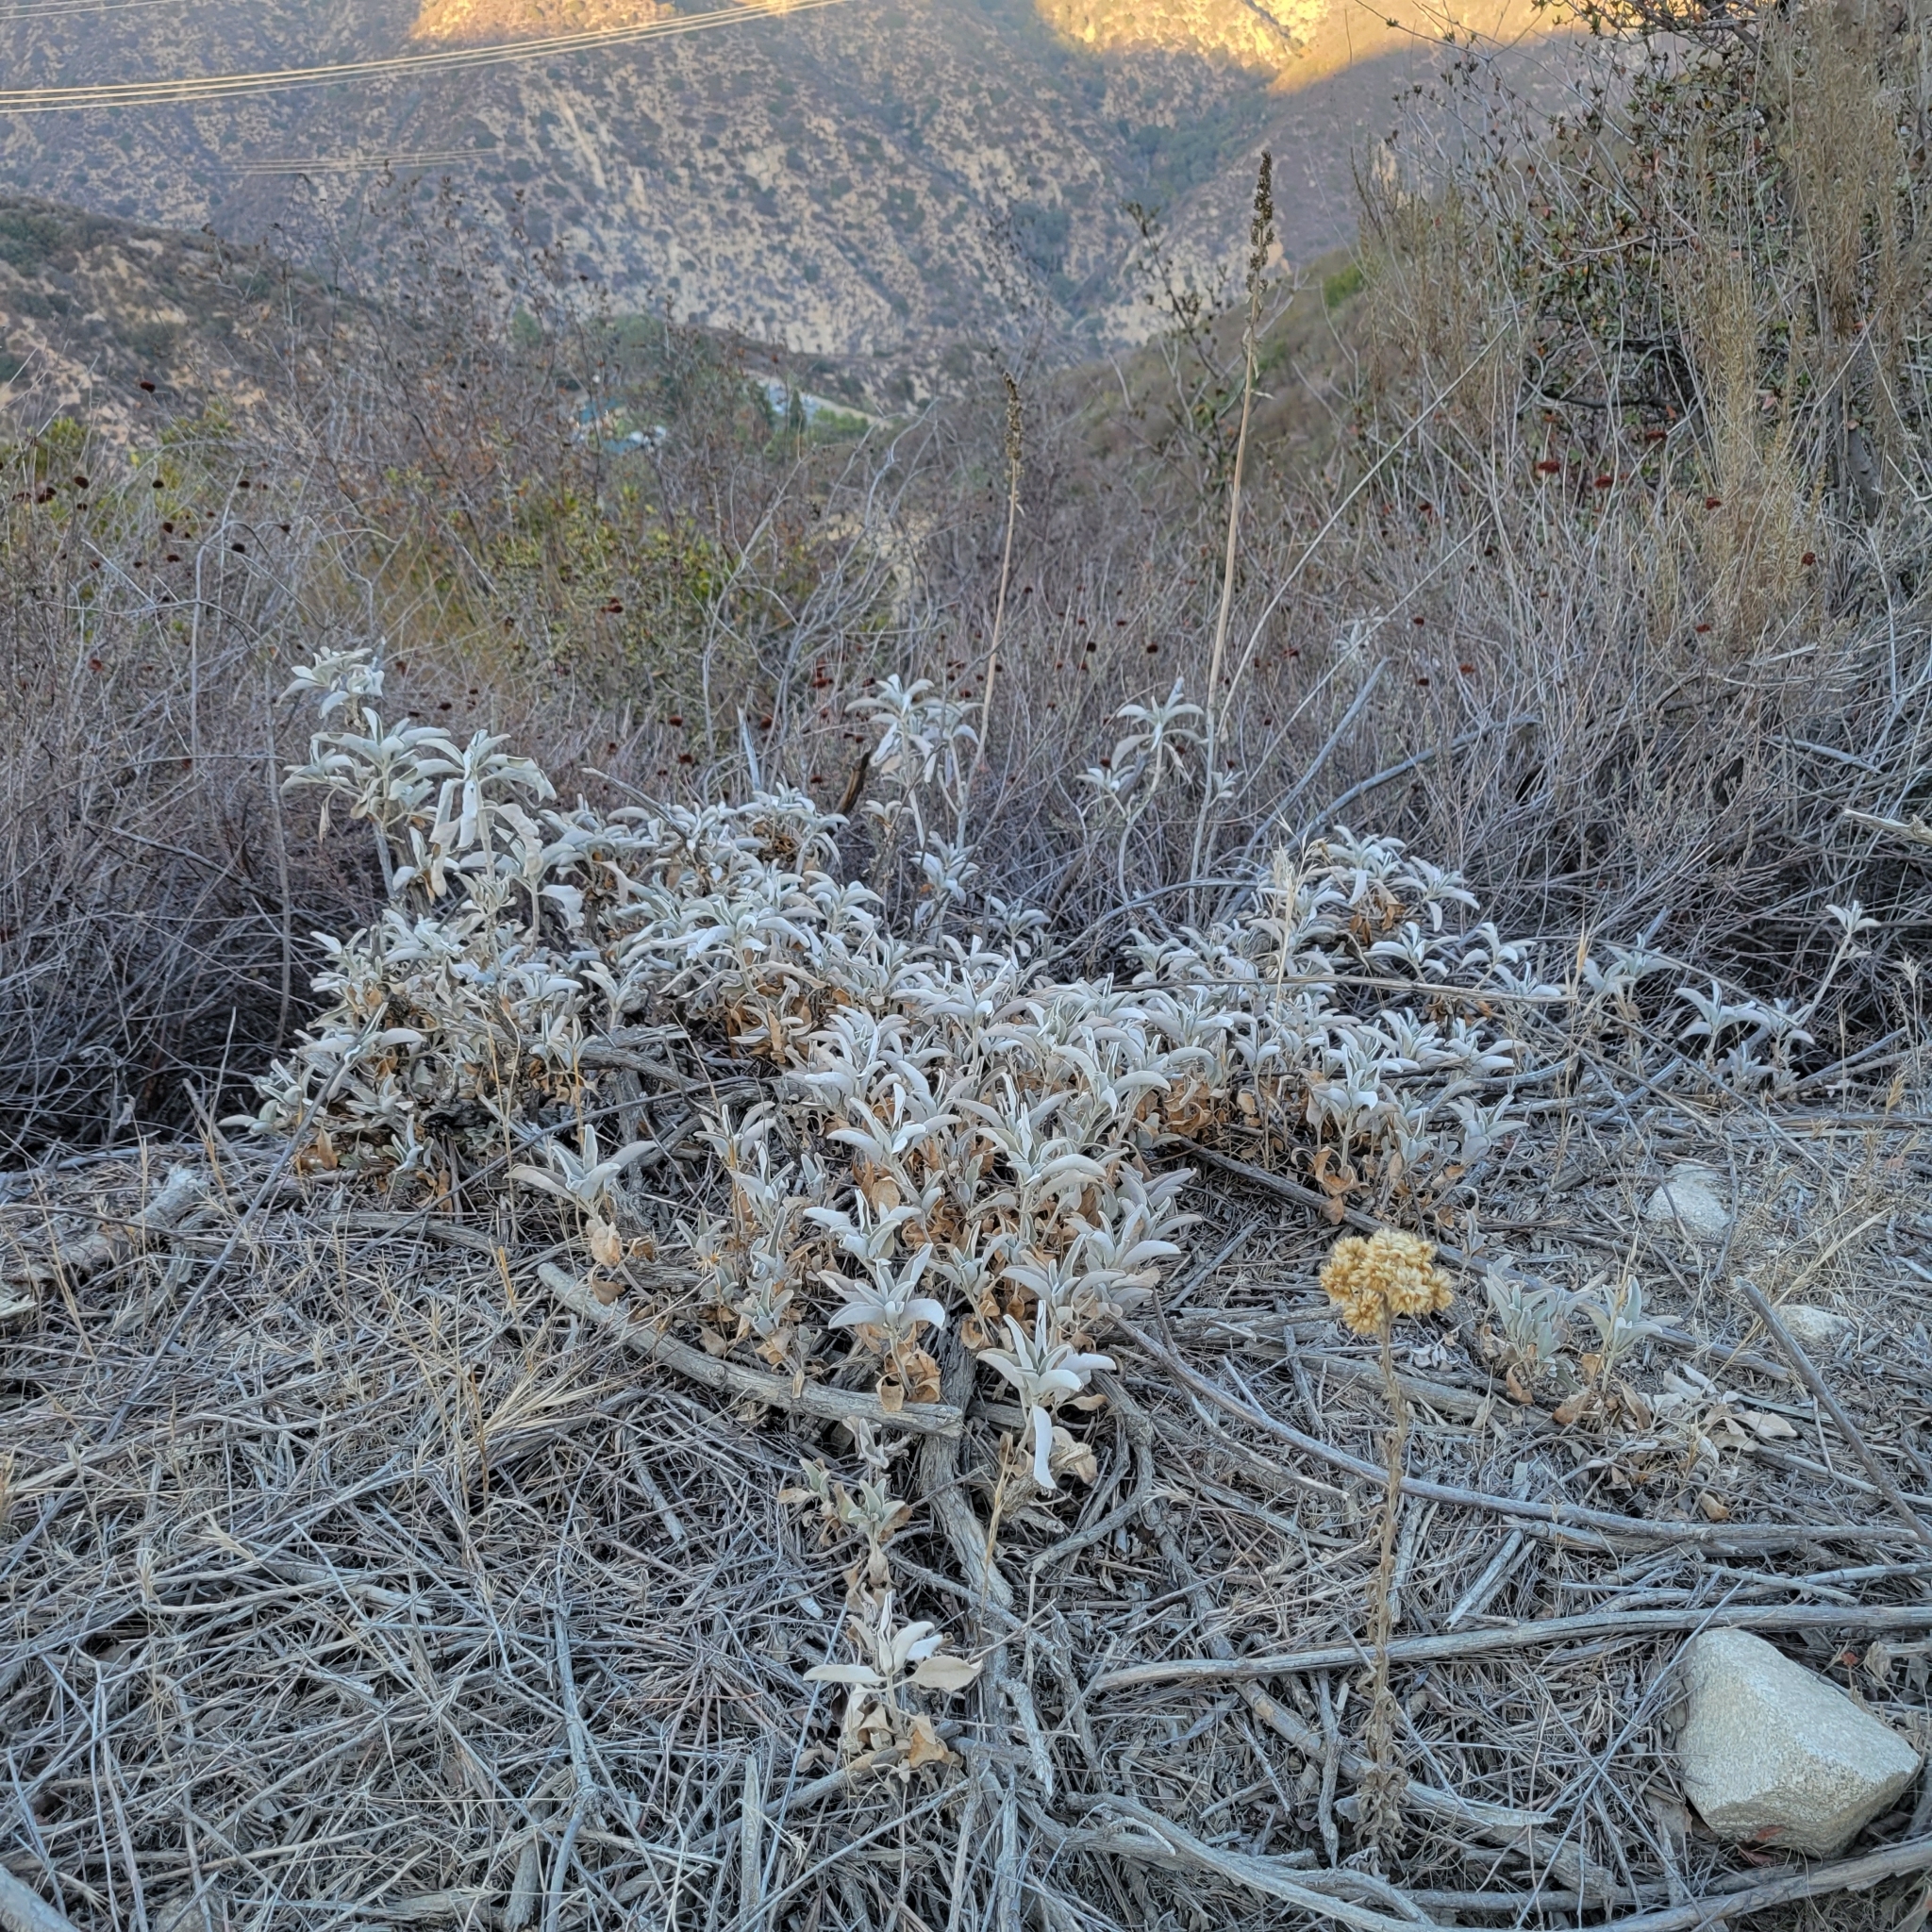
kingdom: Plantae
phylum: Tracheophyta
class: Magnoliopsida
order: Lamiales
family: Lamiaceae
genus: Salvia
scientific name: Salvia apiana
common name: White sage
